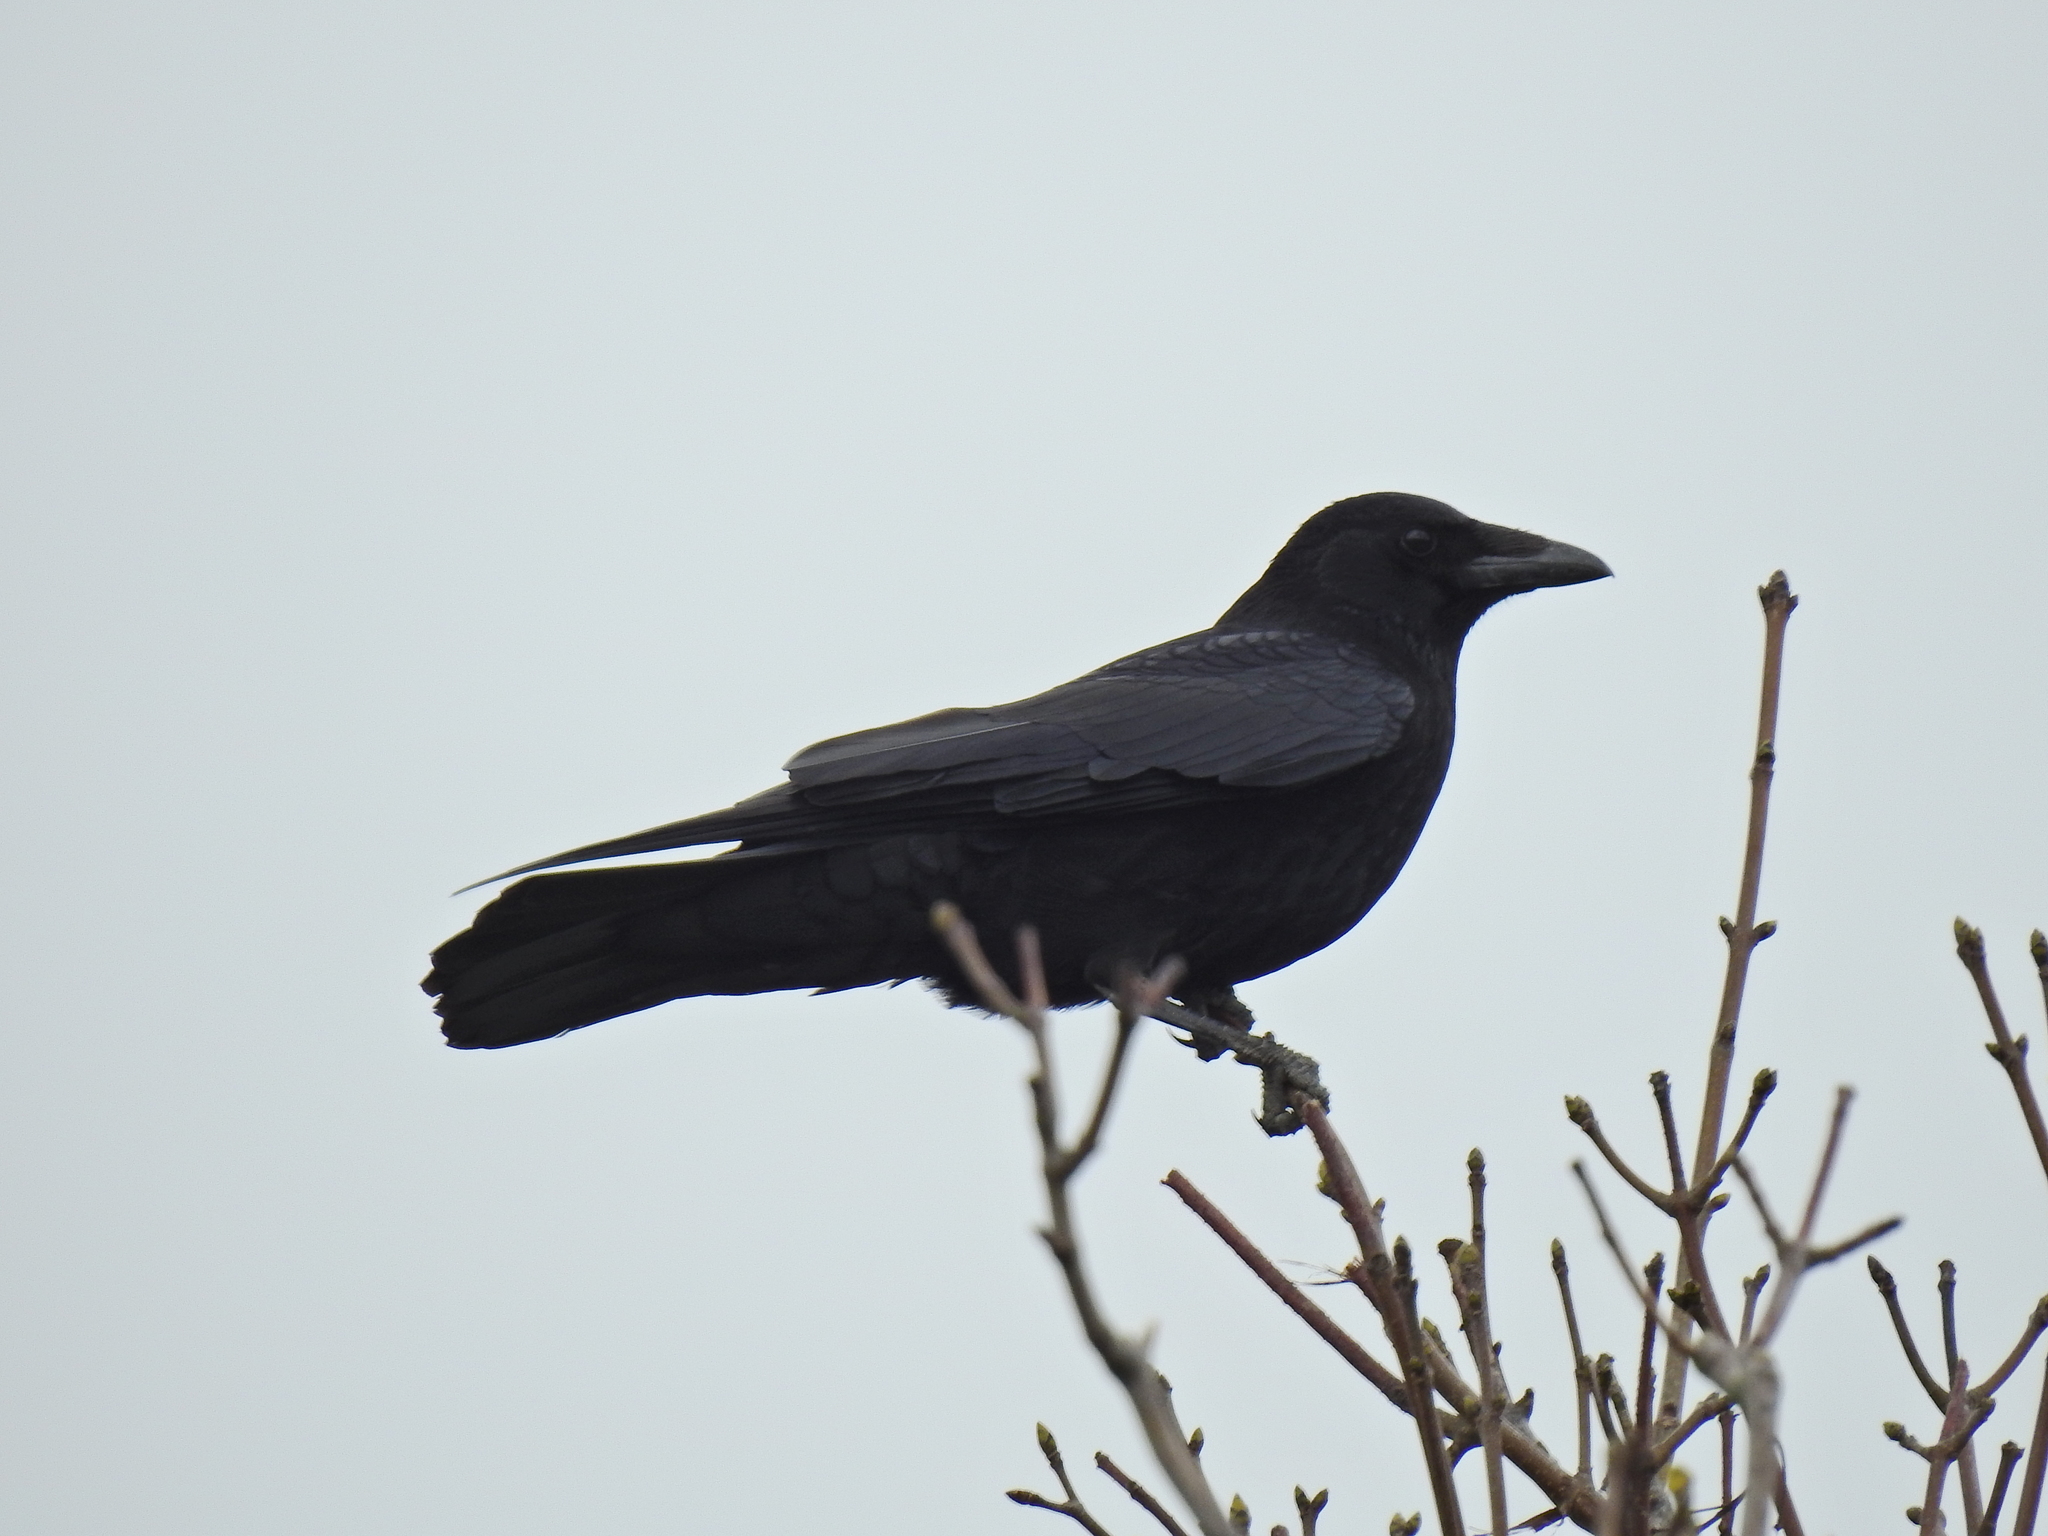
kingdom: Animalia
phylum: Chordata
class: Aves
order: Passeriformes
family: Corvidae
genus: Corvus
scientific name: Corvus corone
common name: Carrion crow
